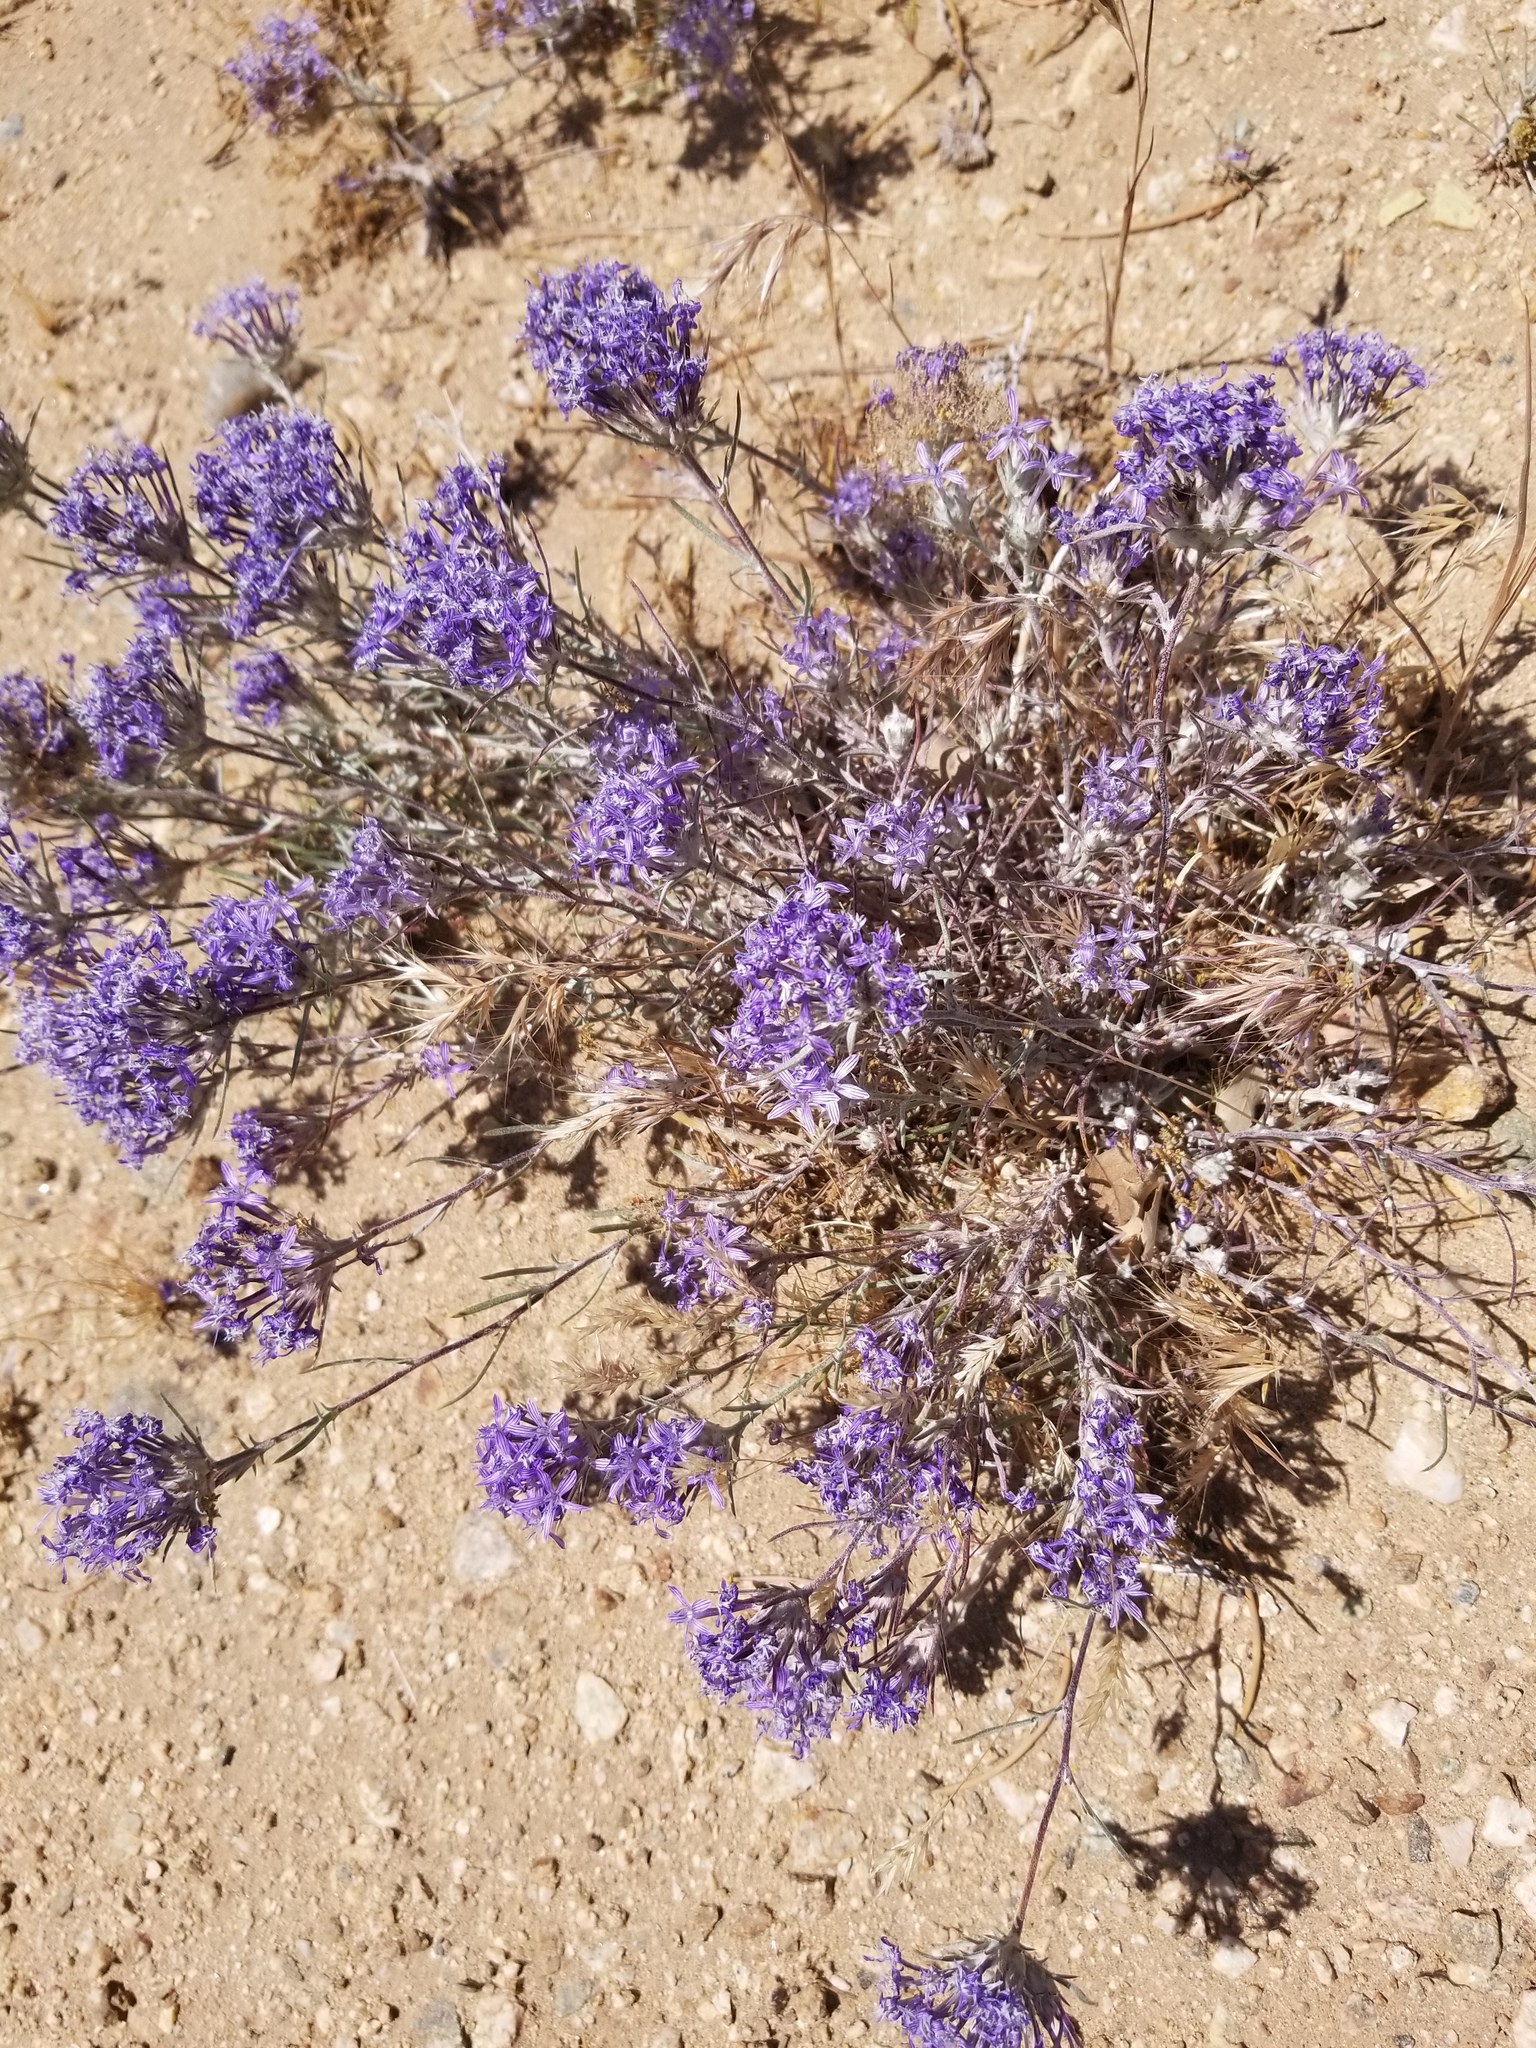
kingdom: Plantae
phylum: Tracheophyta
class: Magnoliopsida
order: Ericales
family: Polemoniaceae
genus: Eriastrum
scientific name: Eriastrum densifolium
